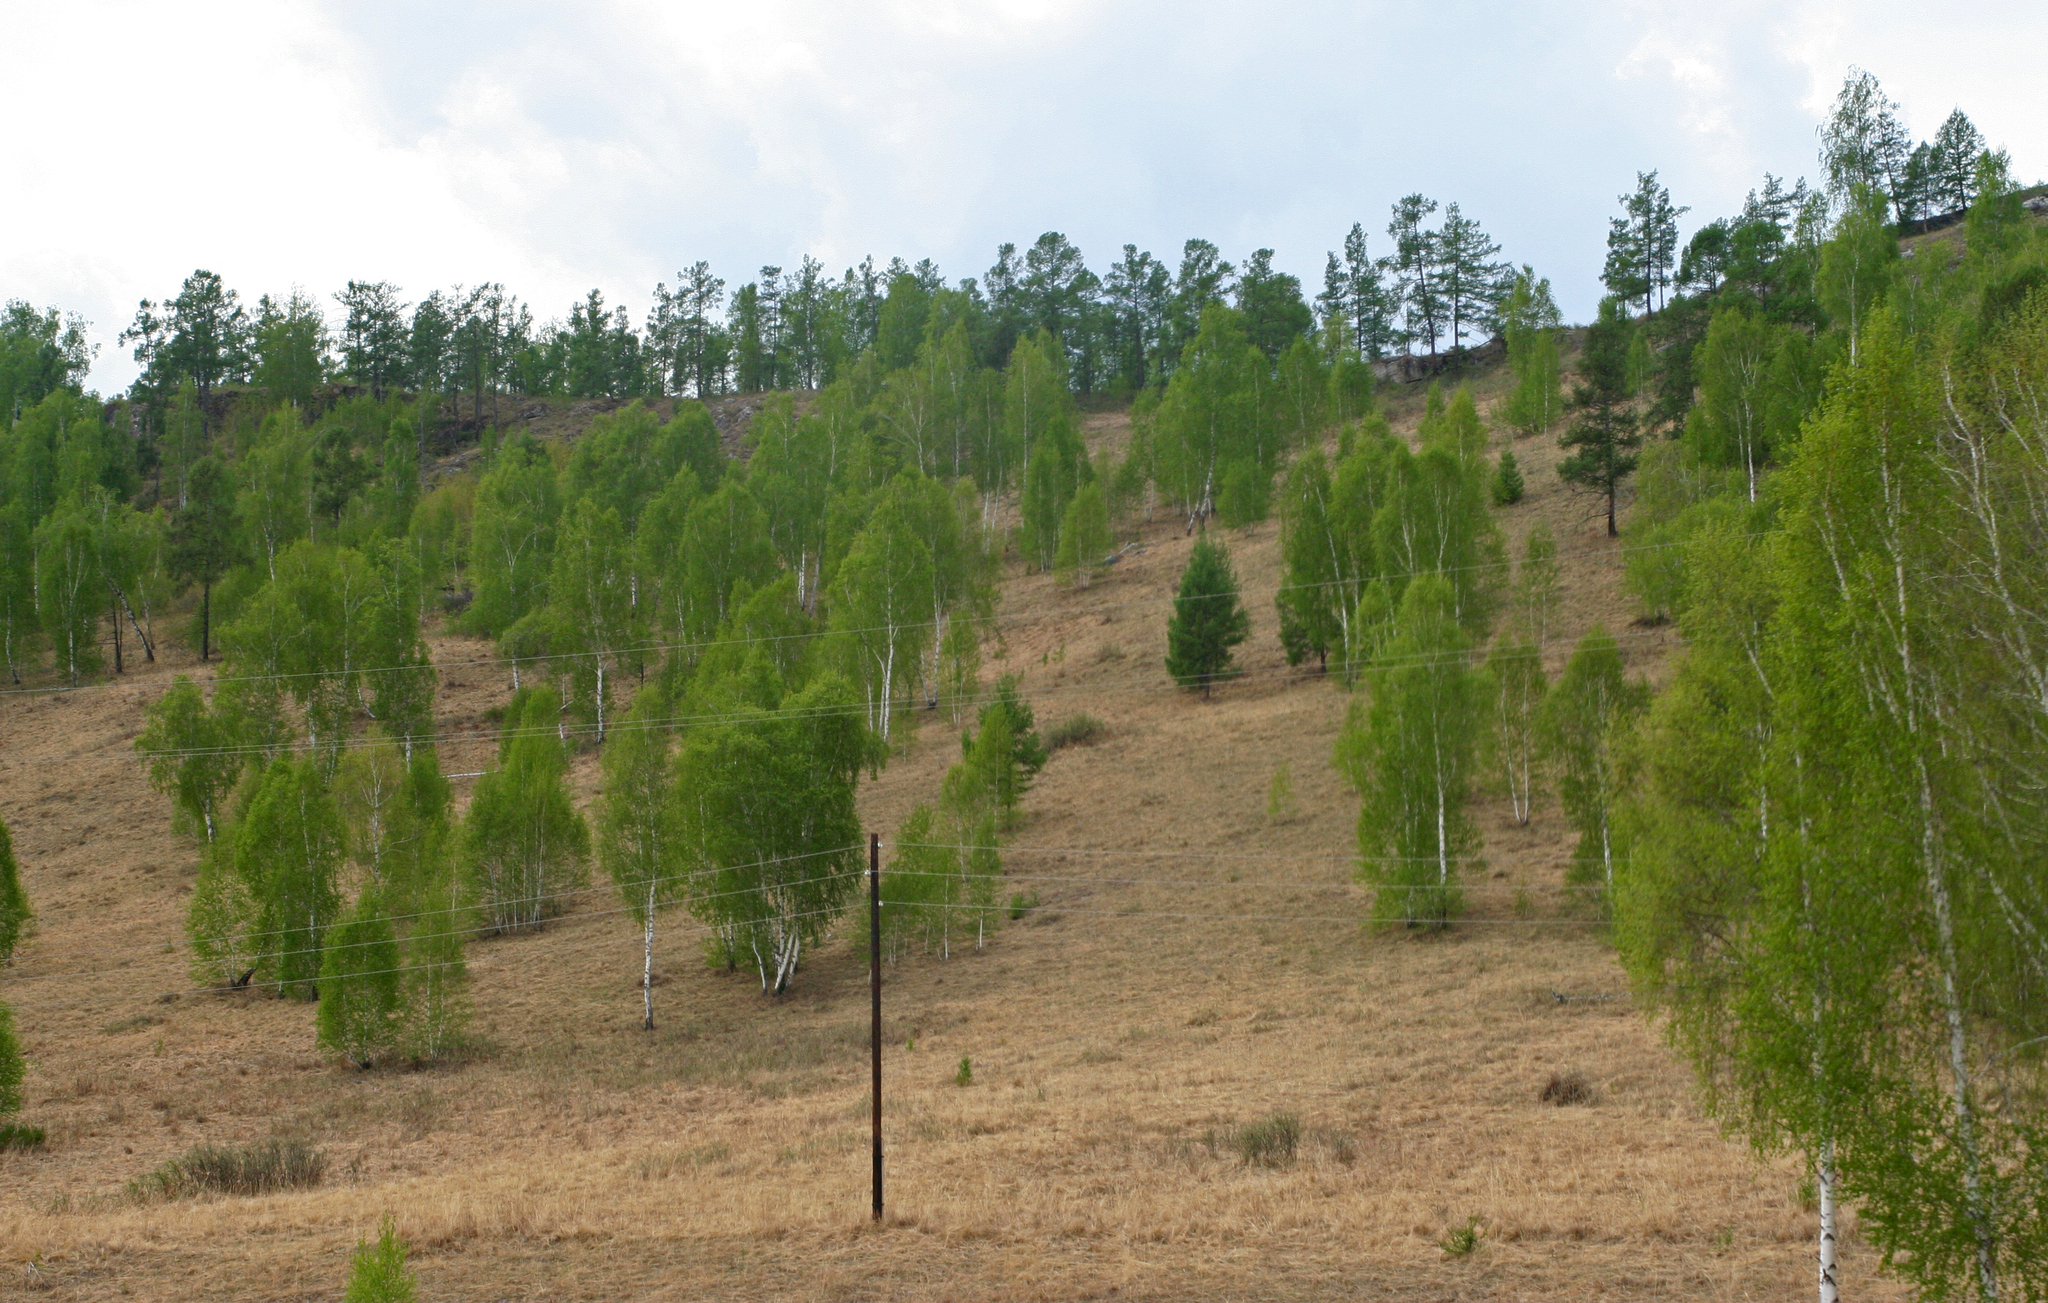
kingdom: Plantae
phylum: Tracheophyta
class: Magnoliopsida
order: Fagales
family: Betulaceae
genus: Betula
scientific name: Betula pendula
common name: Silver birch
